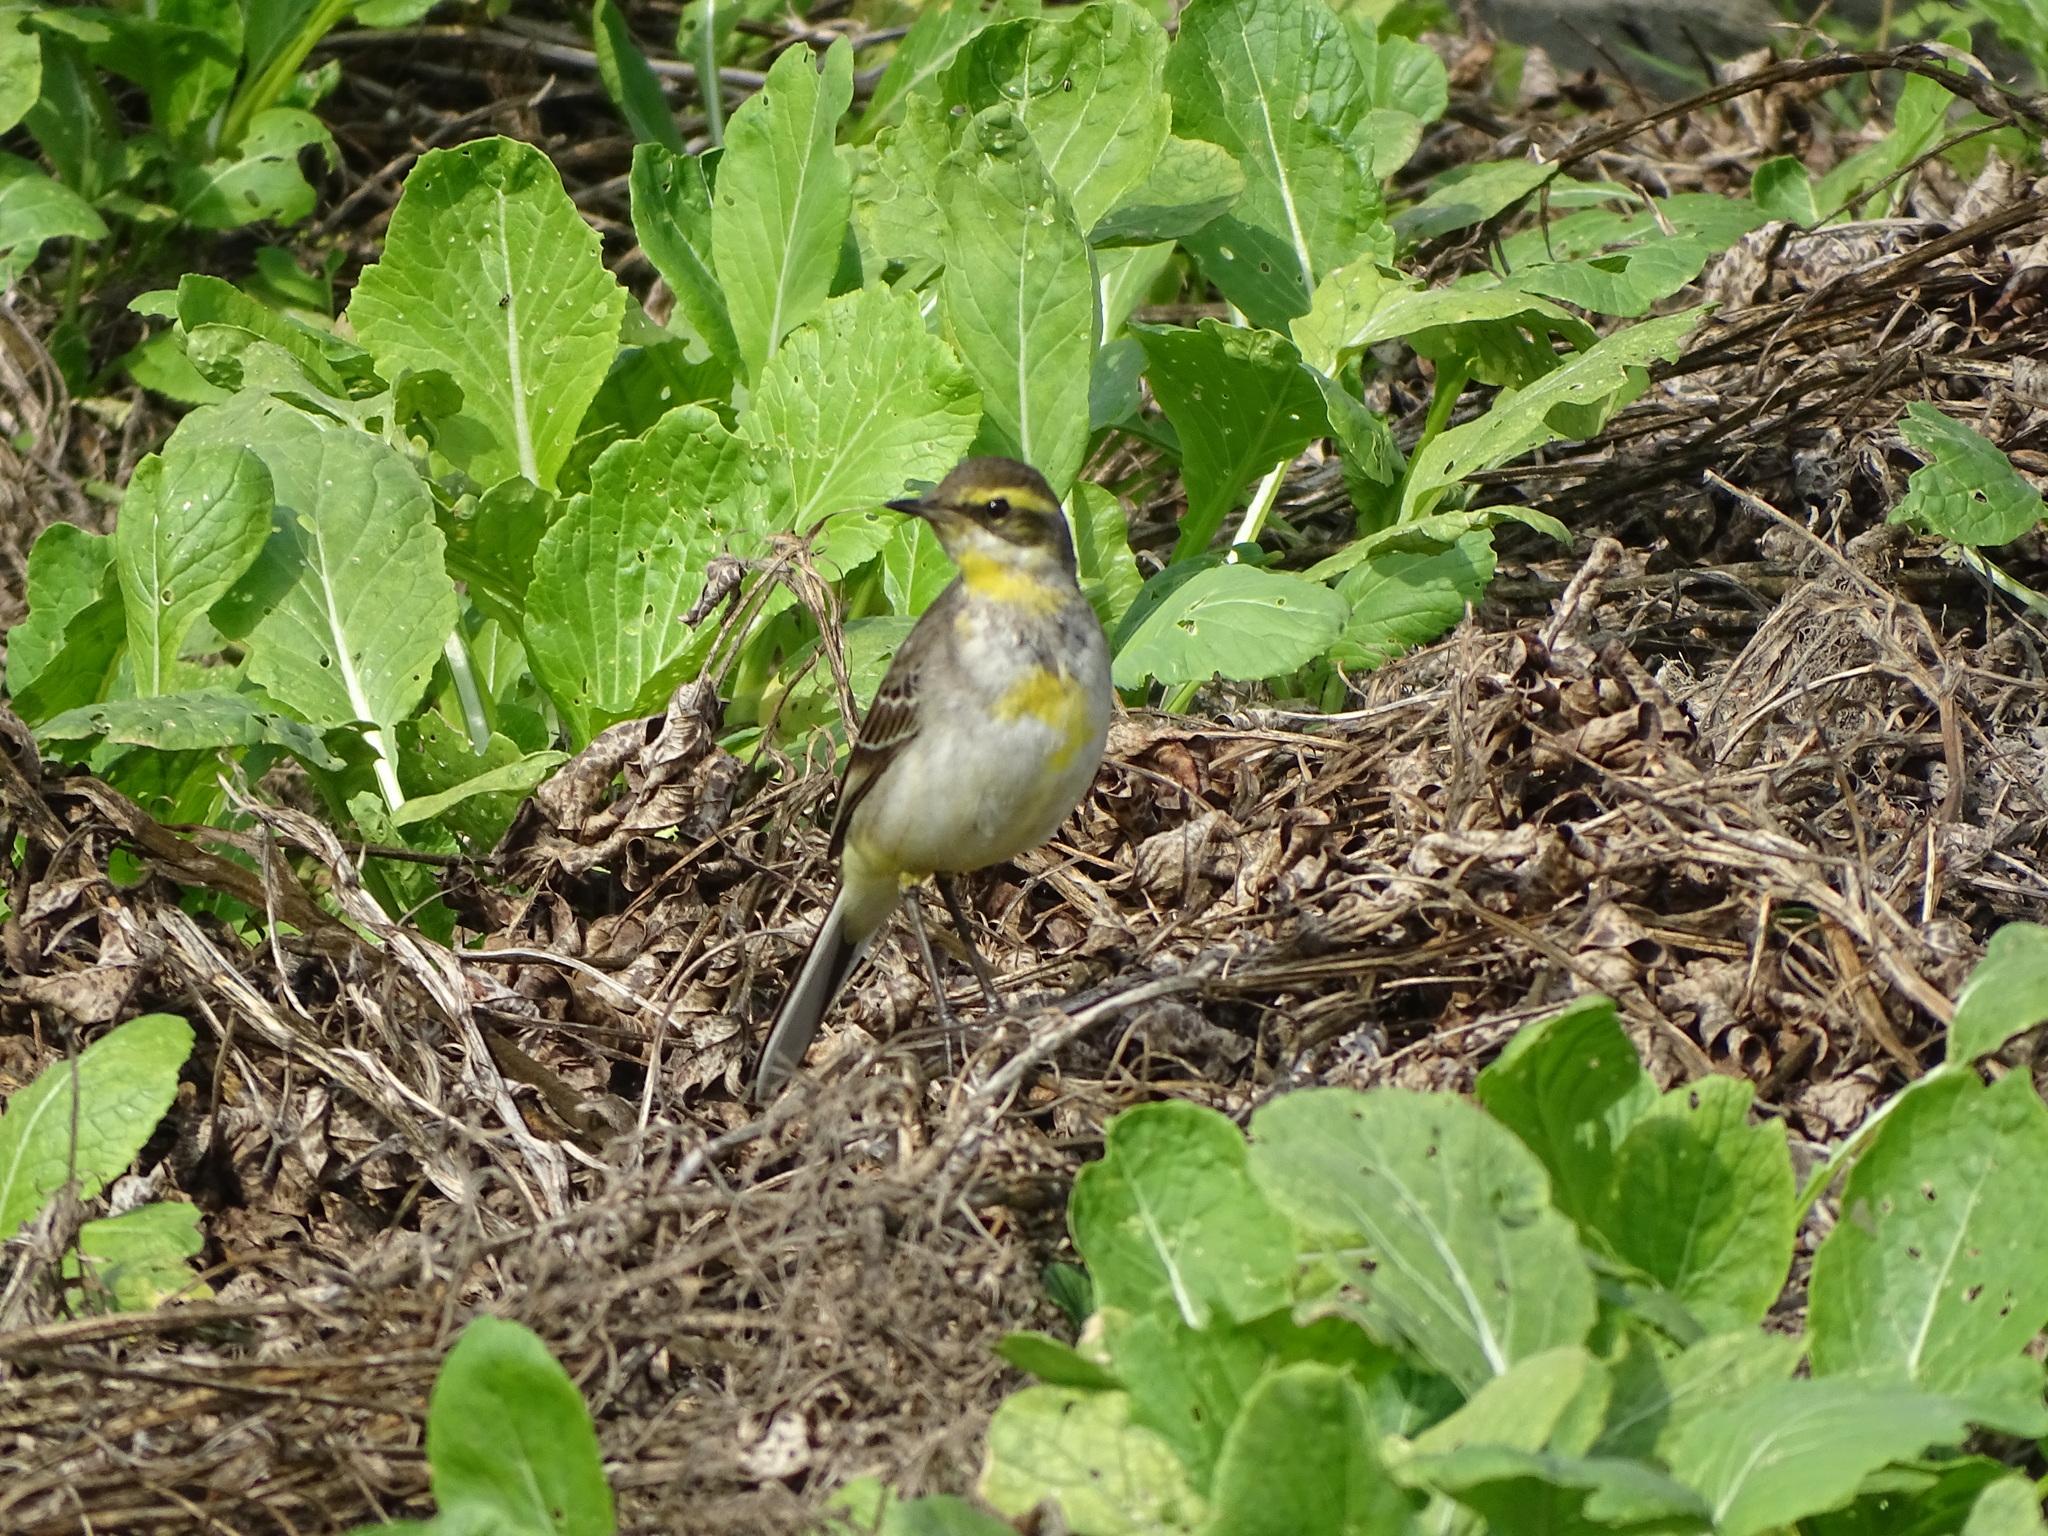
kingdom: Animalia
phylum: Chordata
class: Aves
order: Passeriformes
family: Motacillidae
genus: Motacilla
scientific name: Motacilla tschutschensis
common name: Eastern yellow wagtail
